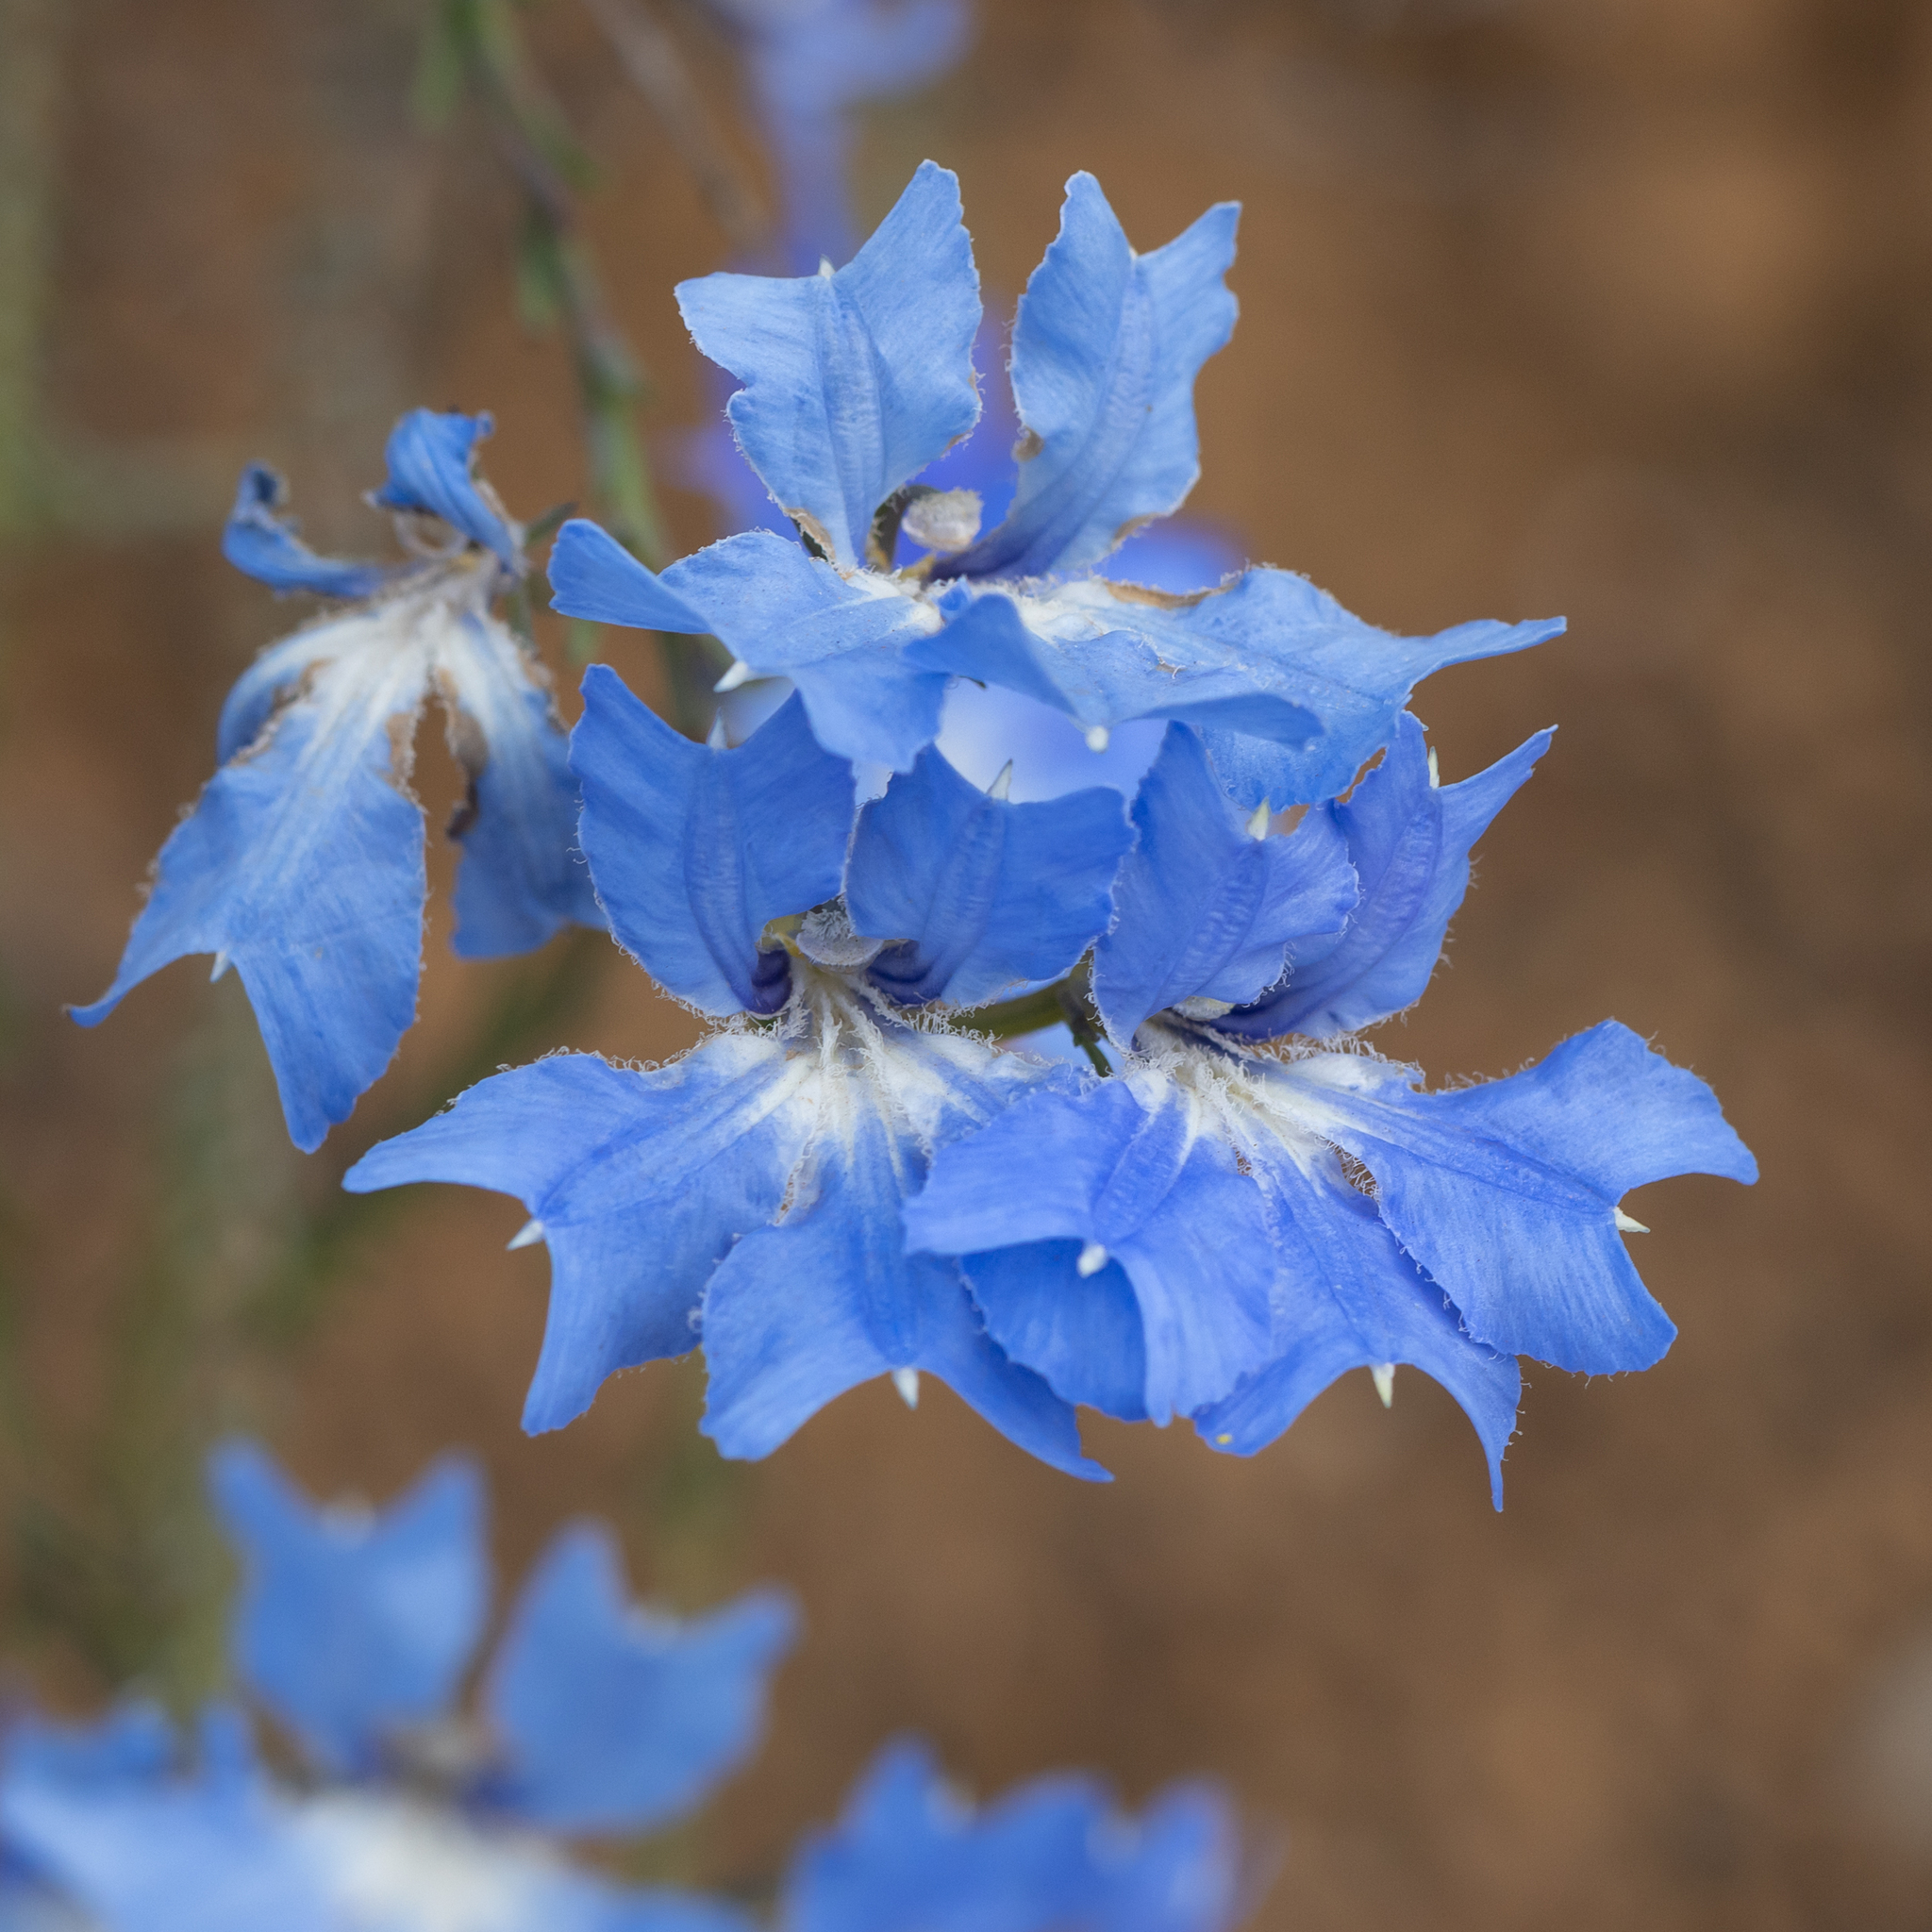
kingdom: Plantae
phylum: Tracheophyta
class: Magnoliopsida
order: Asterales
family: Goodeniaceae
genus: Lechenaultia
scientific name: Lechenaultia biloba
